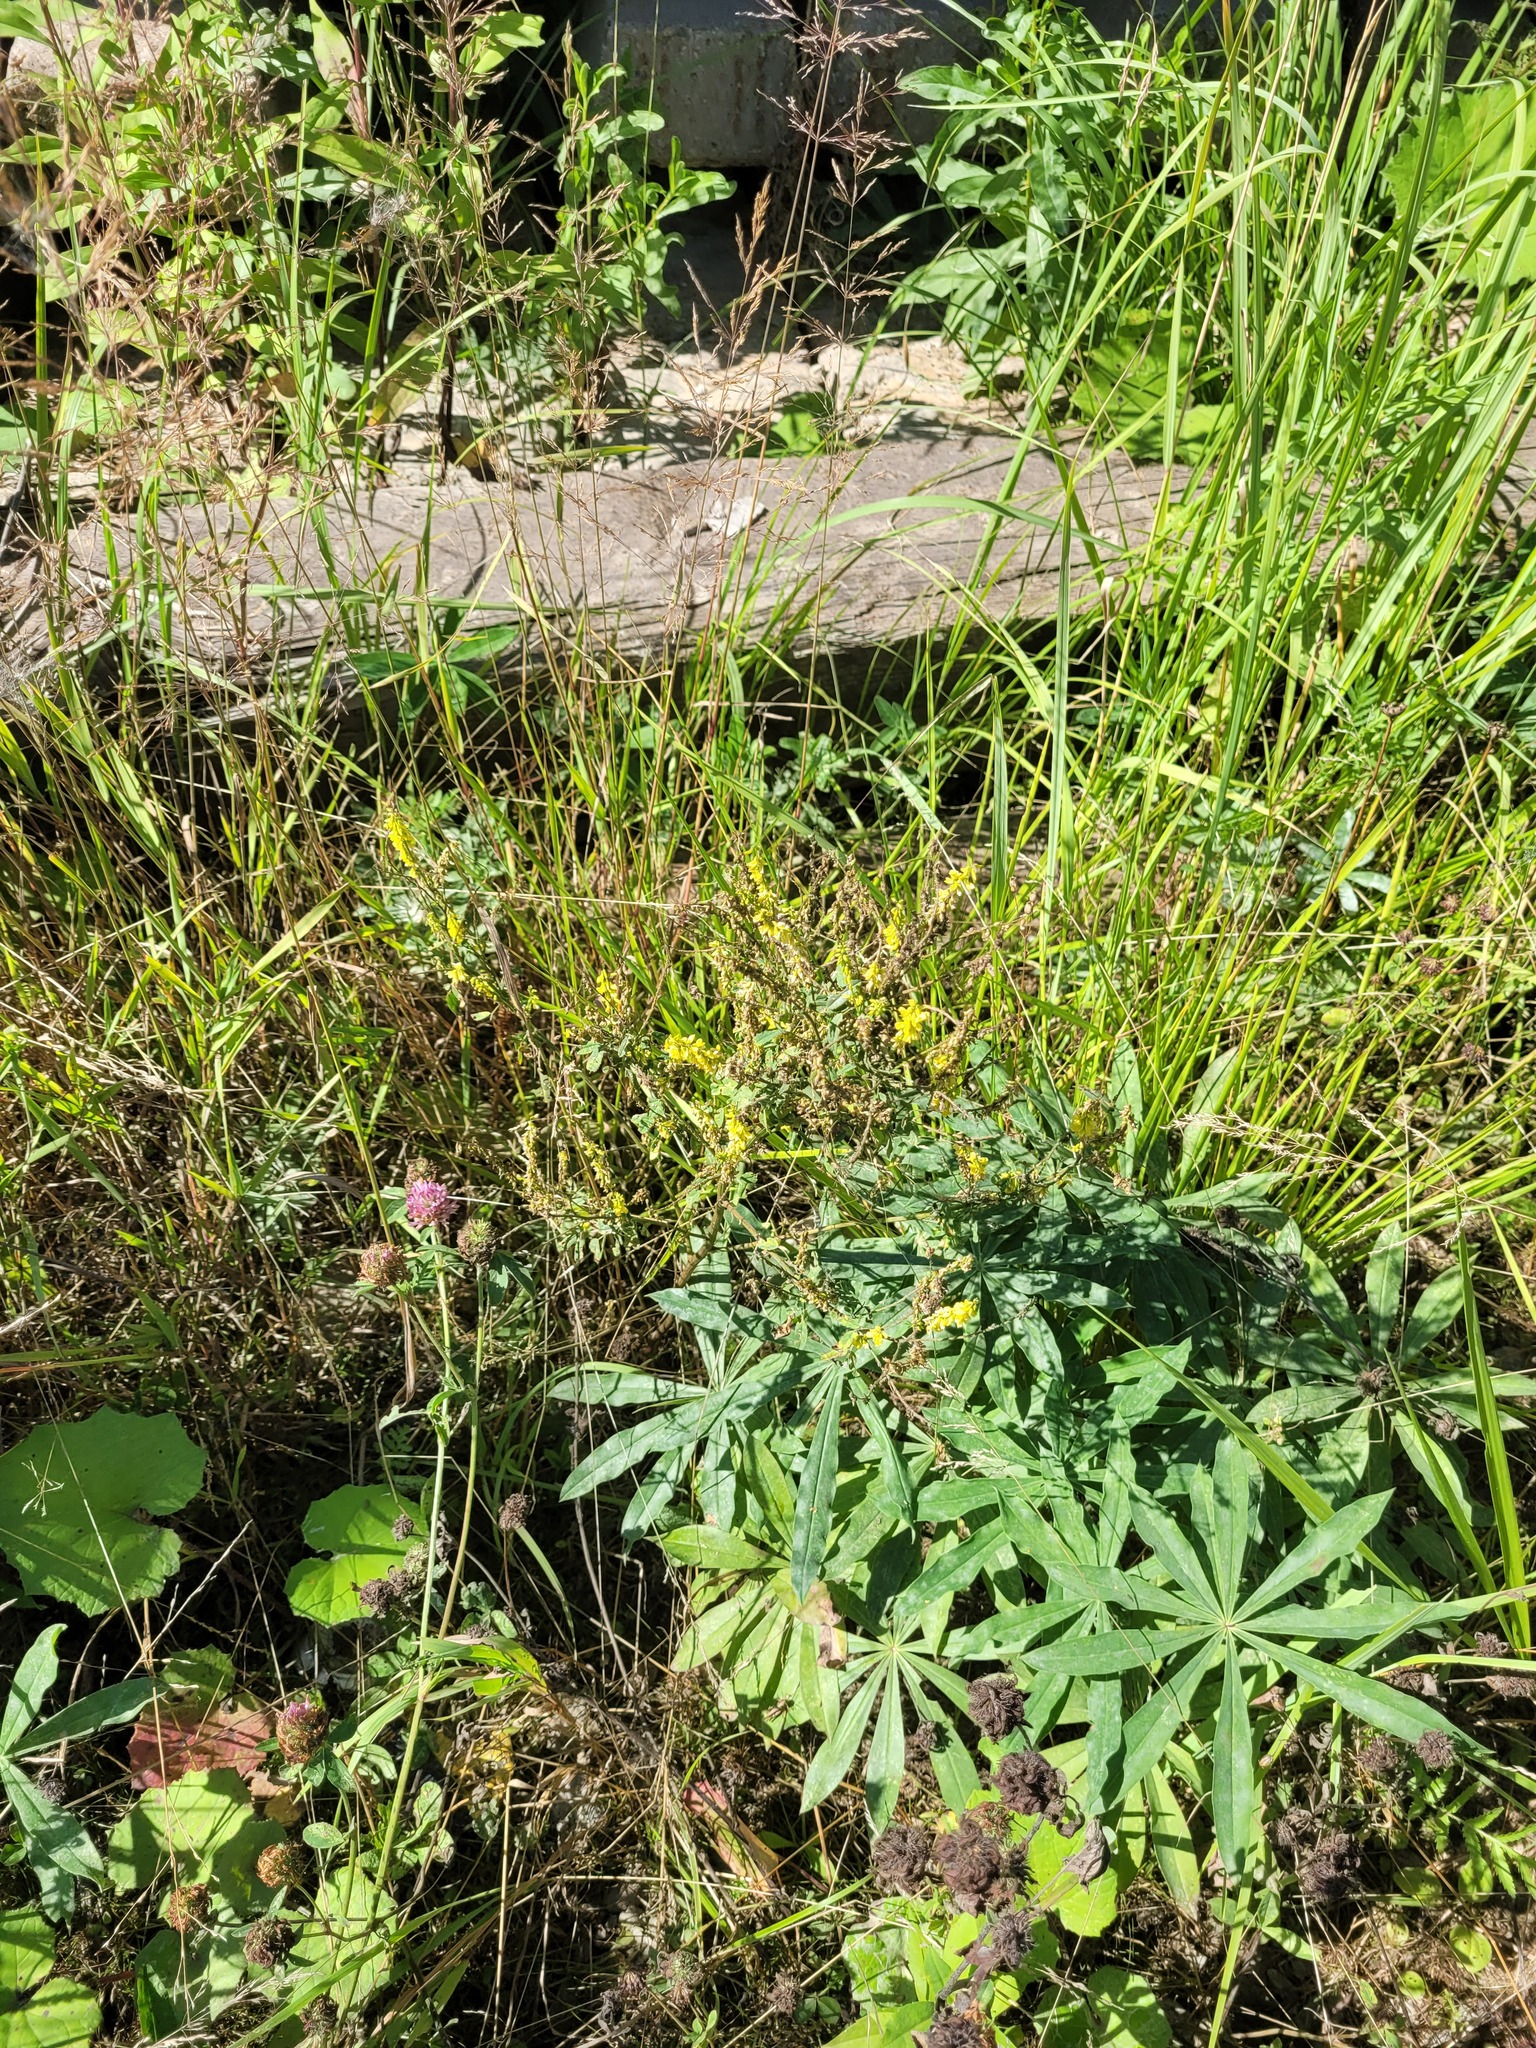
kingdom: Plantae
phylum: Tracheophyta
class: Magnoliopsida
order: Fabales
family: Fabaceae
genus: Melilotus
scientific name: Melilotus officinalis
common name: Sweetclover
